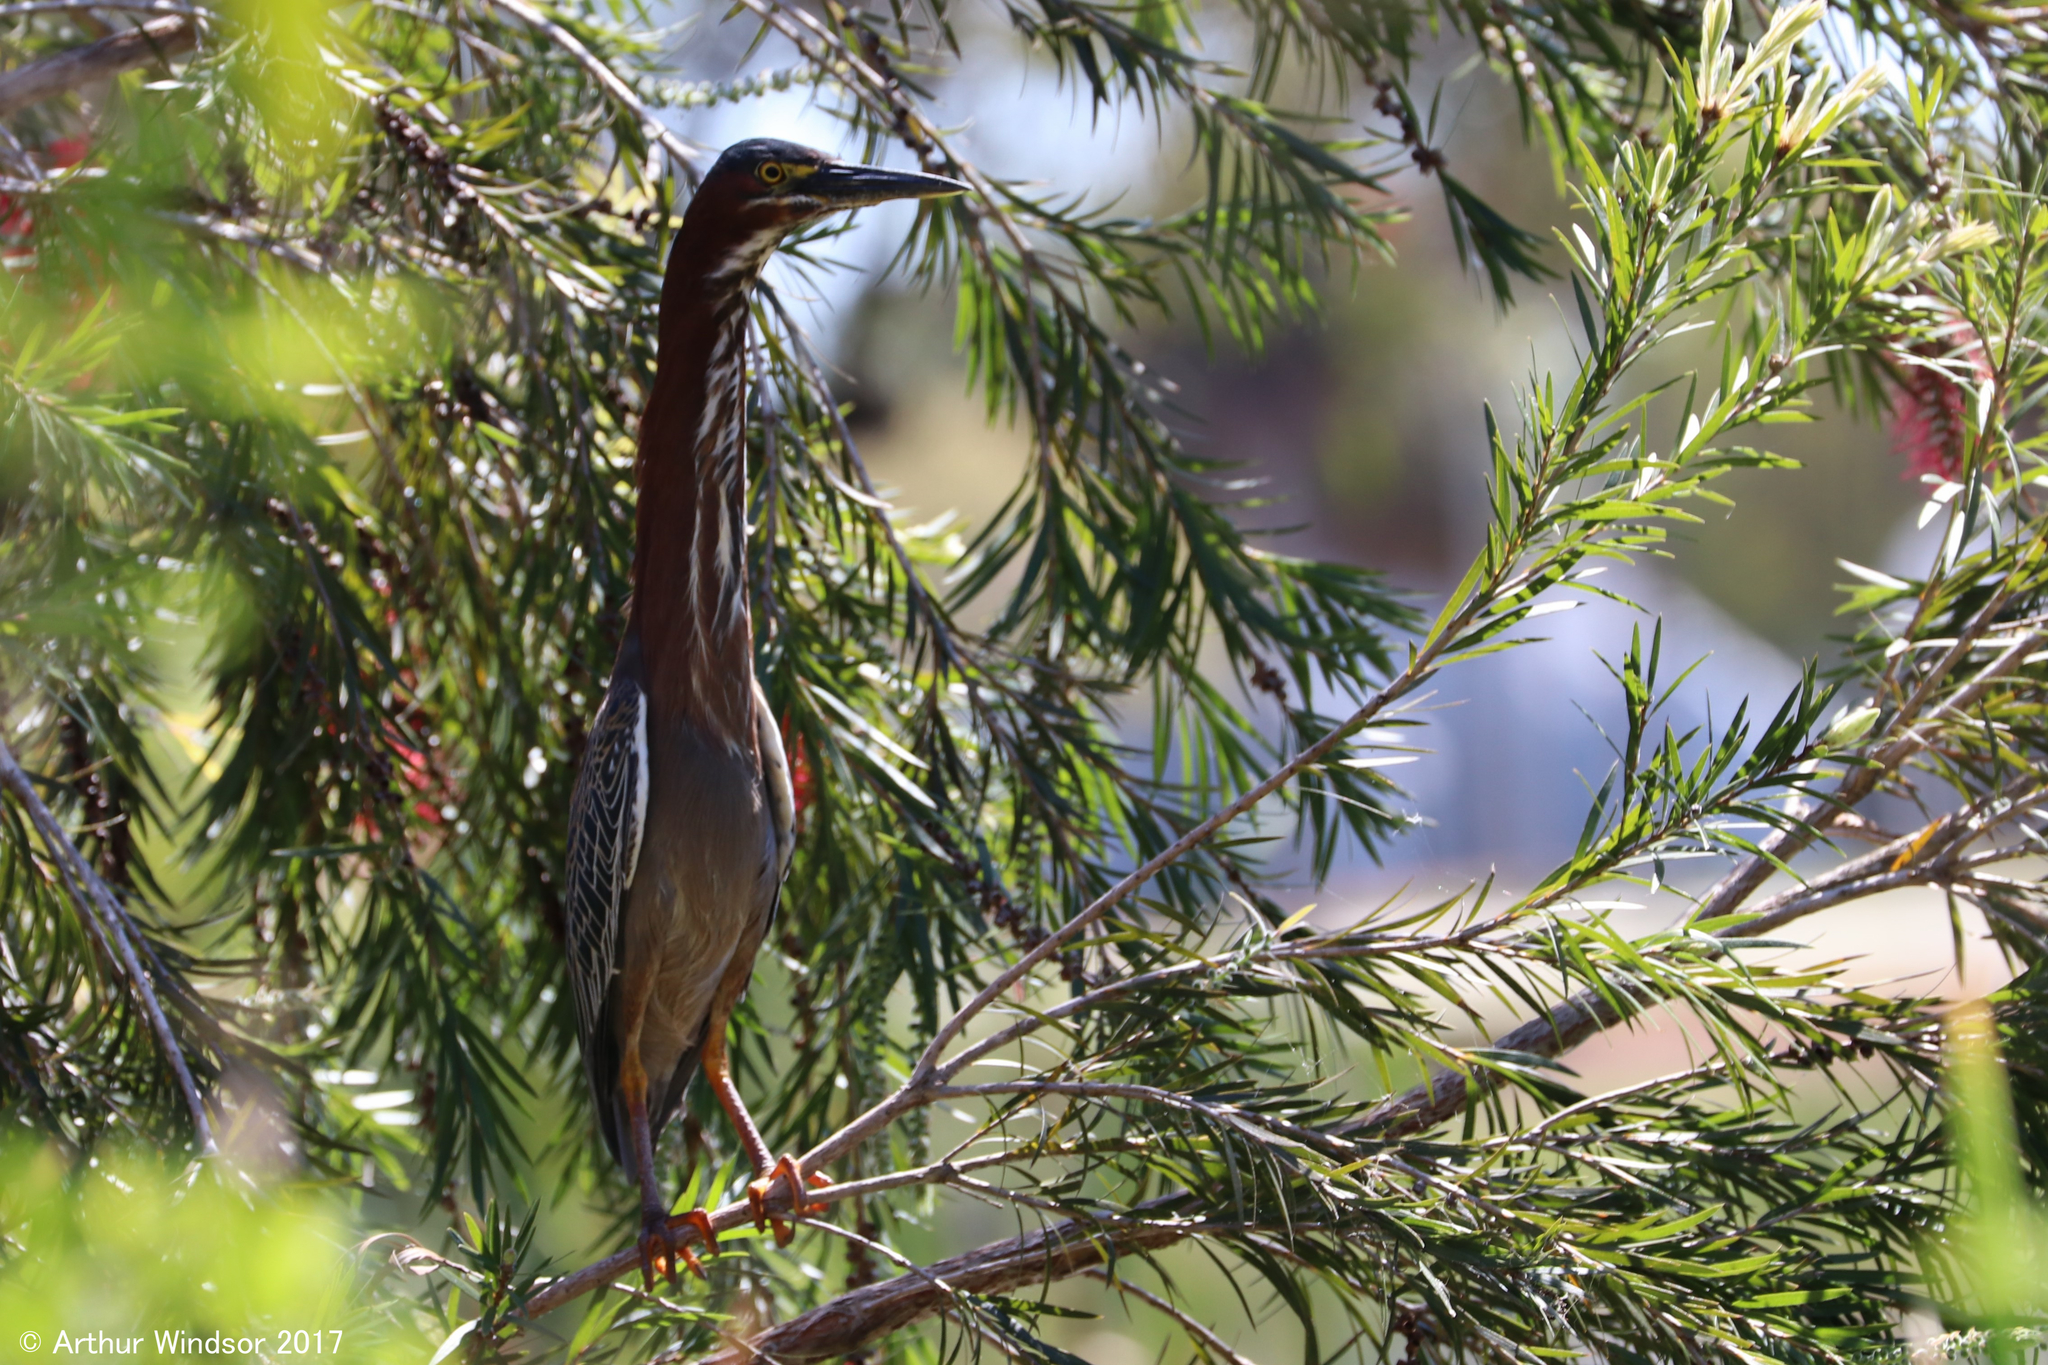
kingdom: Animalia
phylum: Chordata
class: Aves
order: Pelecaniformes
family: Ardeidae
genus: Butorides
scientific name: Butorides virescens
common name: Green heron
